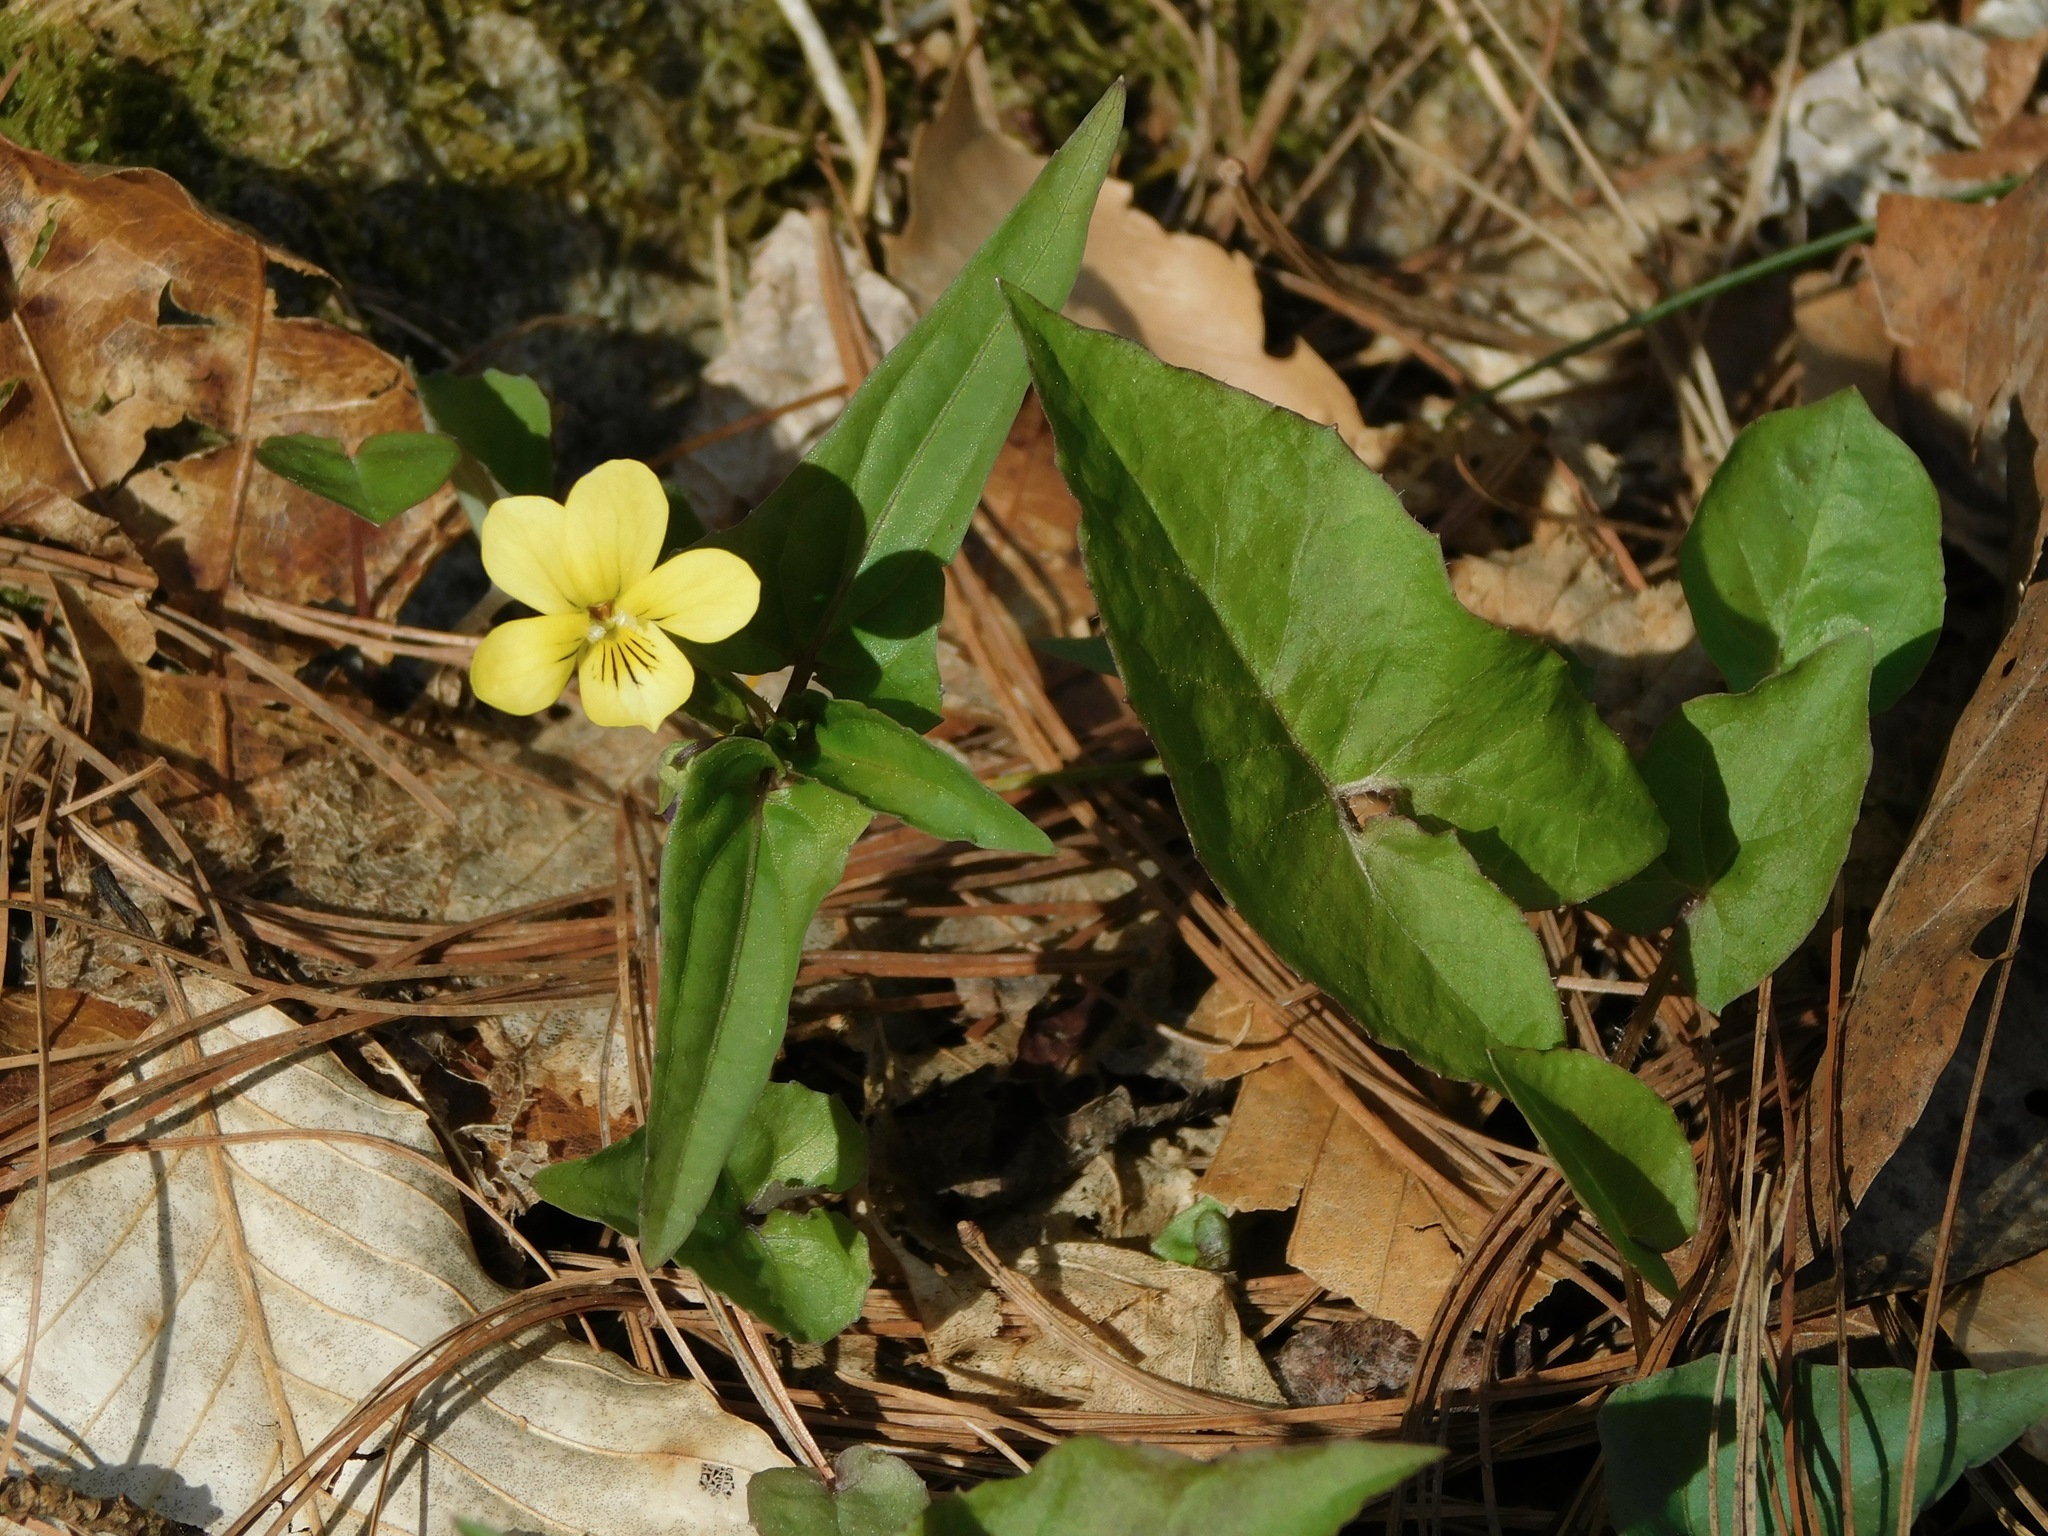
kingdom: Plantae
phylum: Tracheophyta
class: Magnoliopsida
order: Malpighiales
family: Violaceae
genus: Viola
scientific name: Viola hastata
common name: Spear-leaf violet
